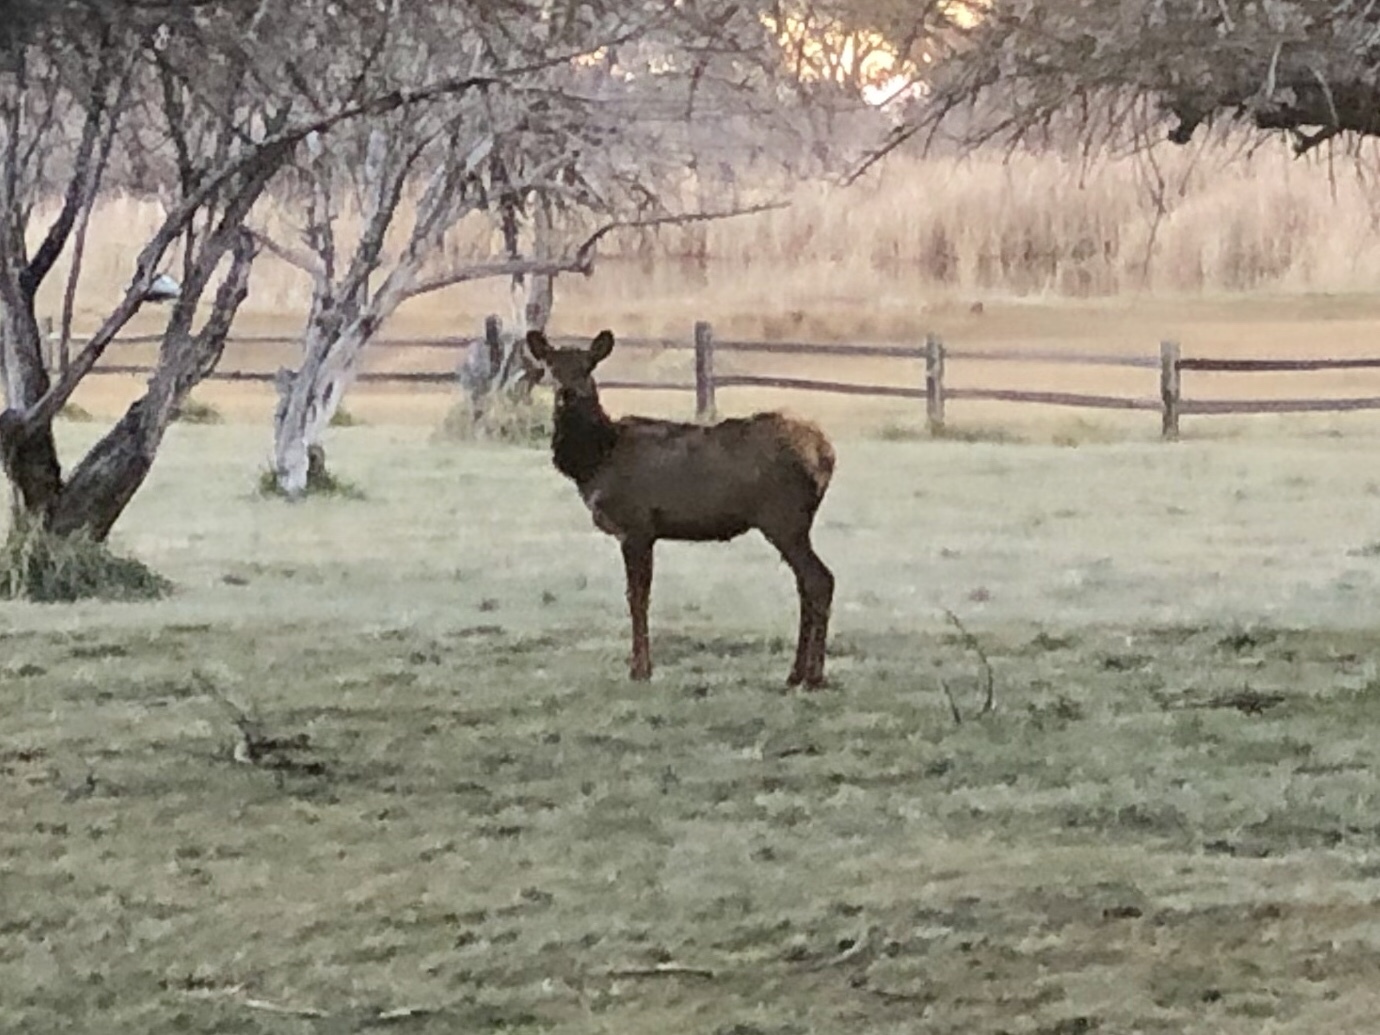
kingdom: Animalia
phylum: Chordata
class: Mammalia
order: Artiodactyla
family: Cervidae
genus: Cervus
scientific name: Cervus elaphus
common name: Red deer
